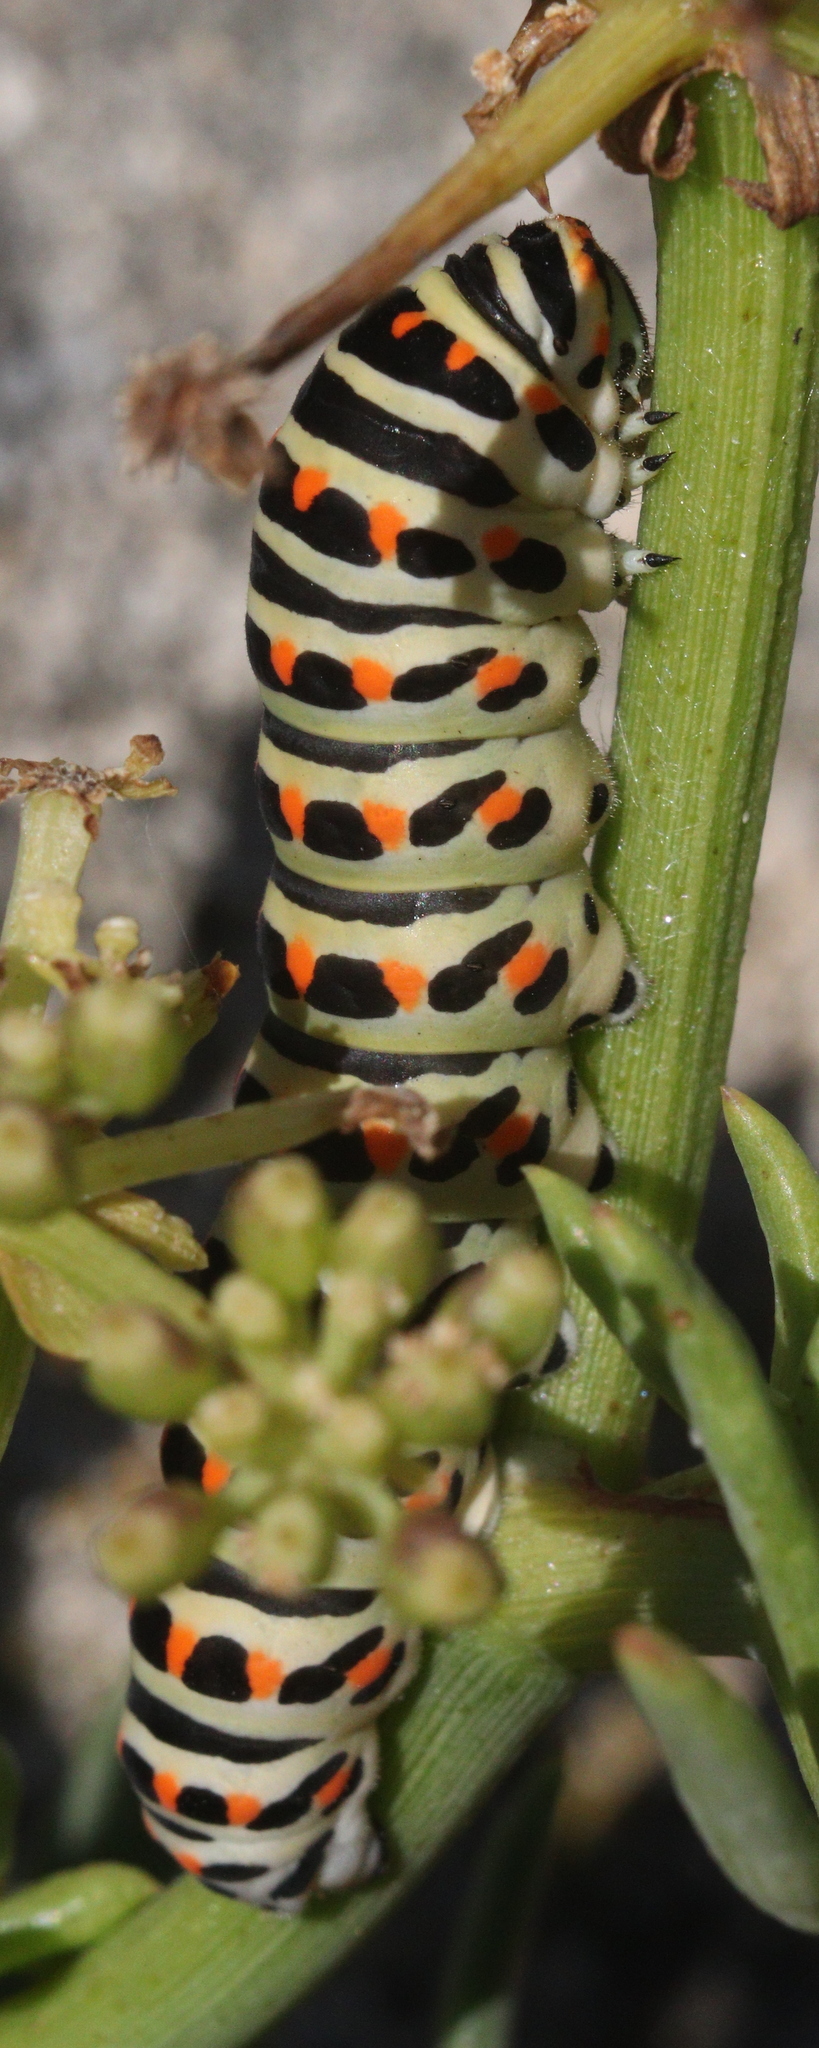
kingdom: Animalia
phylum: Arthropoda
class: Insecta
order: Lepidoptera
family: Papilionidae
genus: Papilio
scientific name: Papilio machaon
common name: Swallowtail
